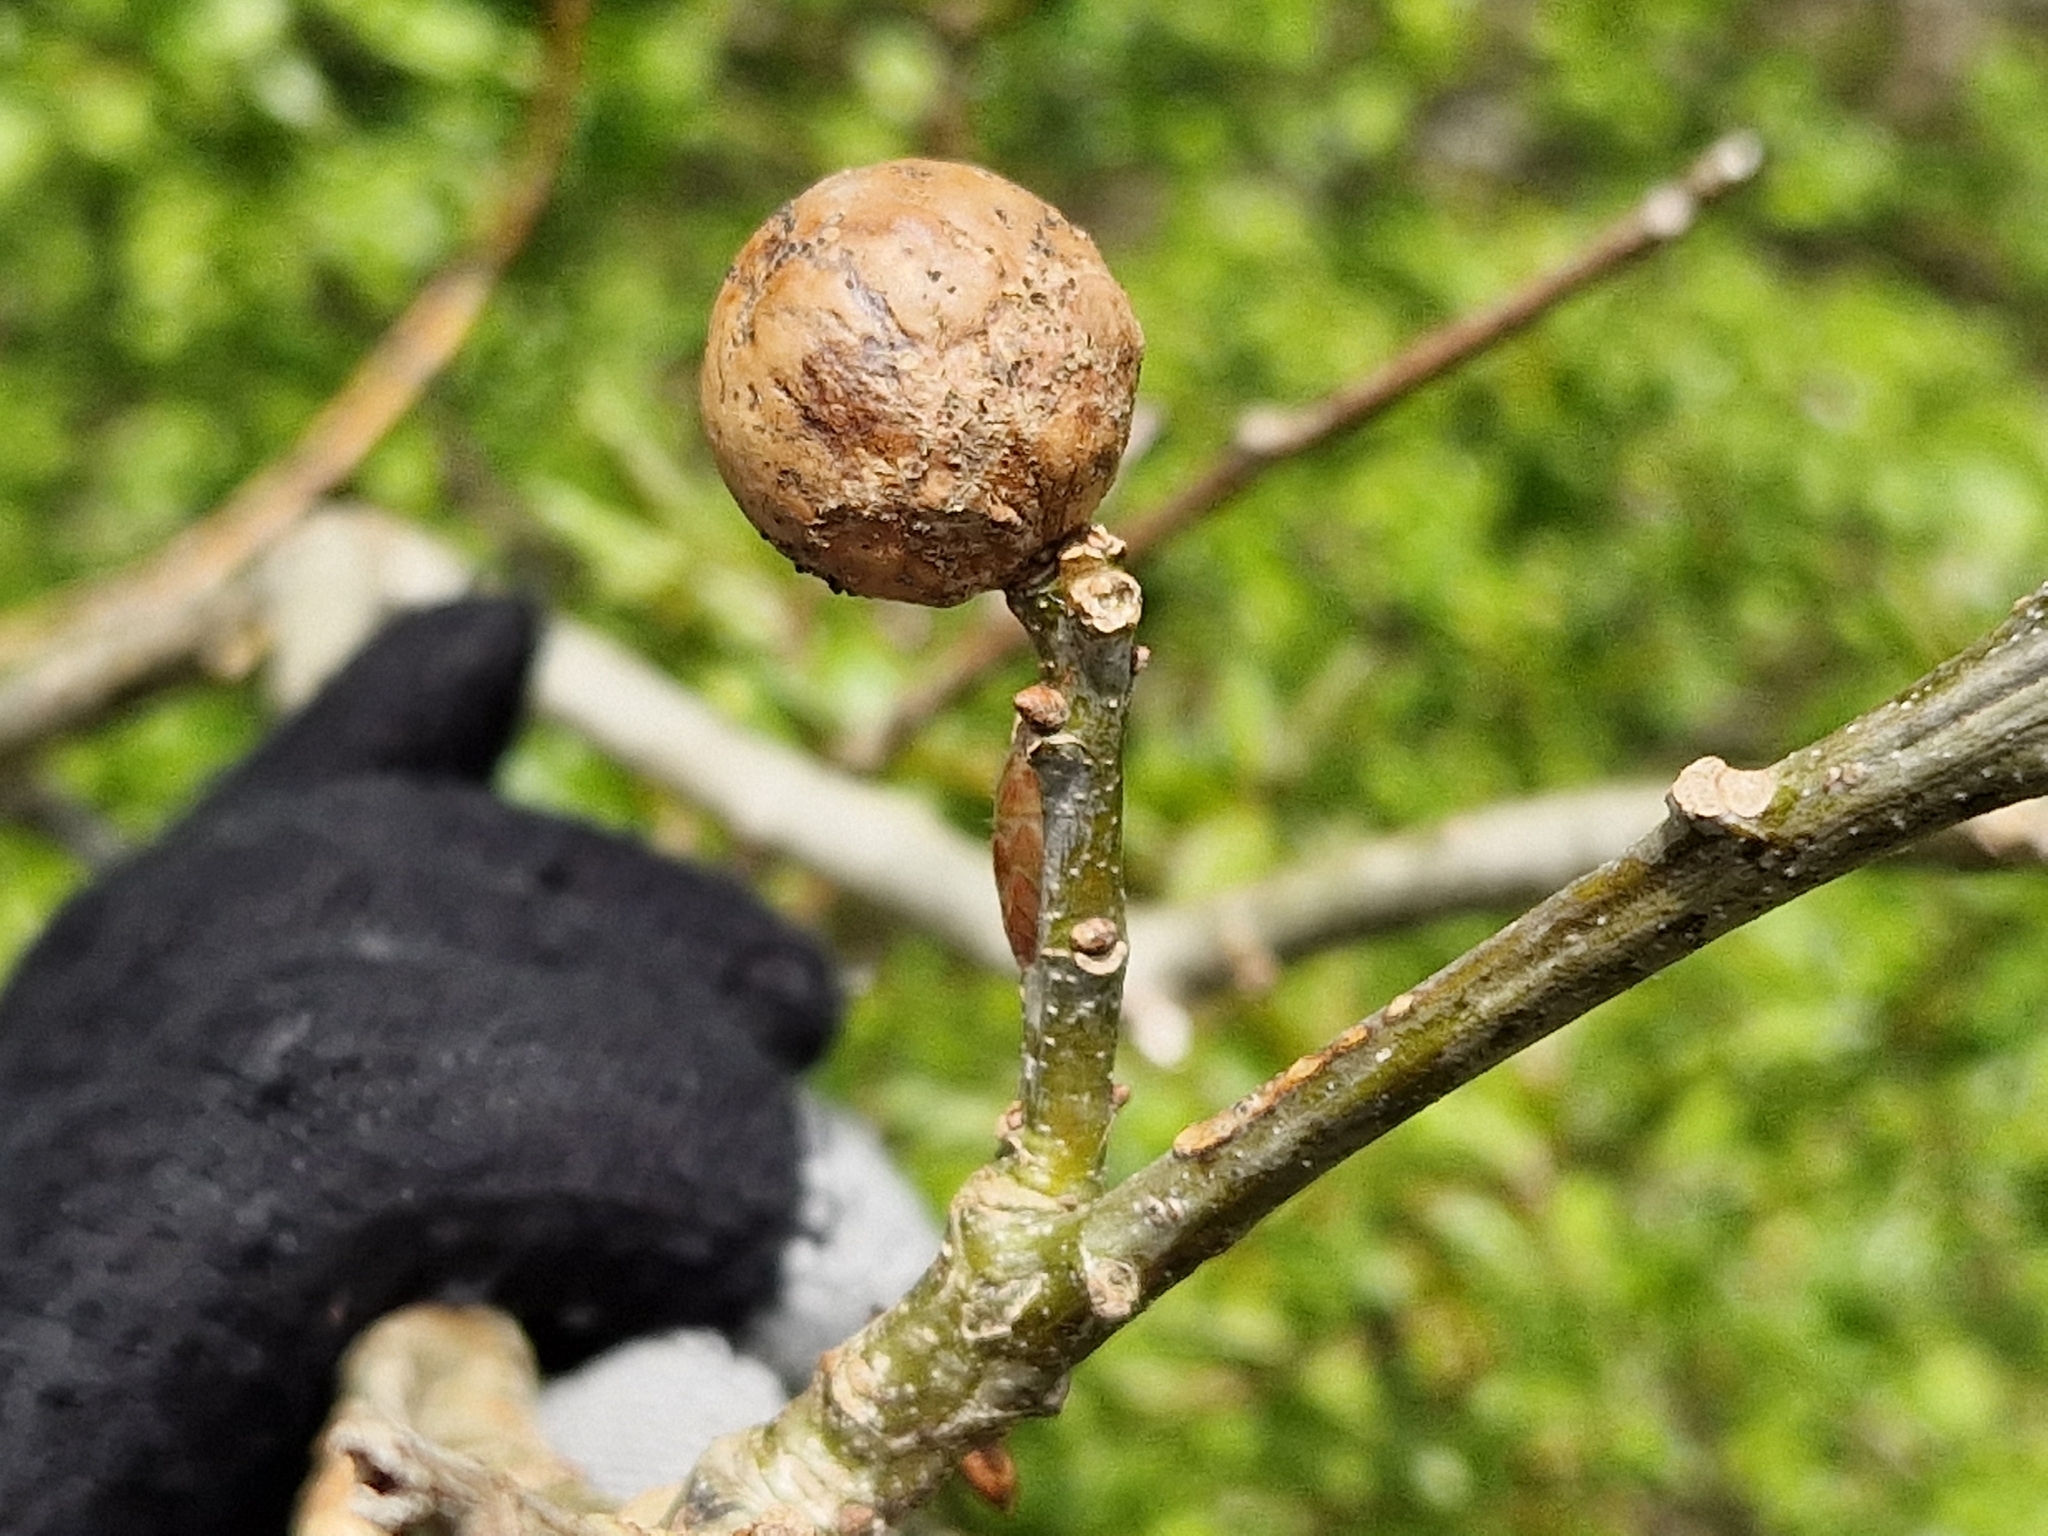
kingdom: Animalia
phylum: Arthropoda
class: Insecta
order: Hymenoptera
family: Cynipidae
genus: Andricus
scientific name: Andricus kollari
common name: Marble gall
